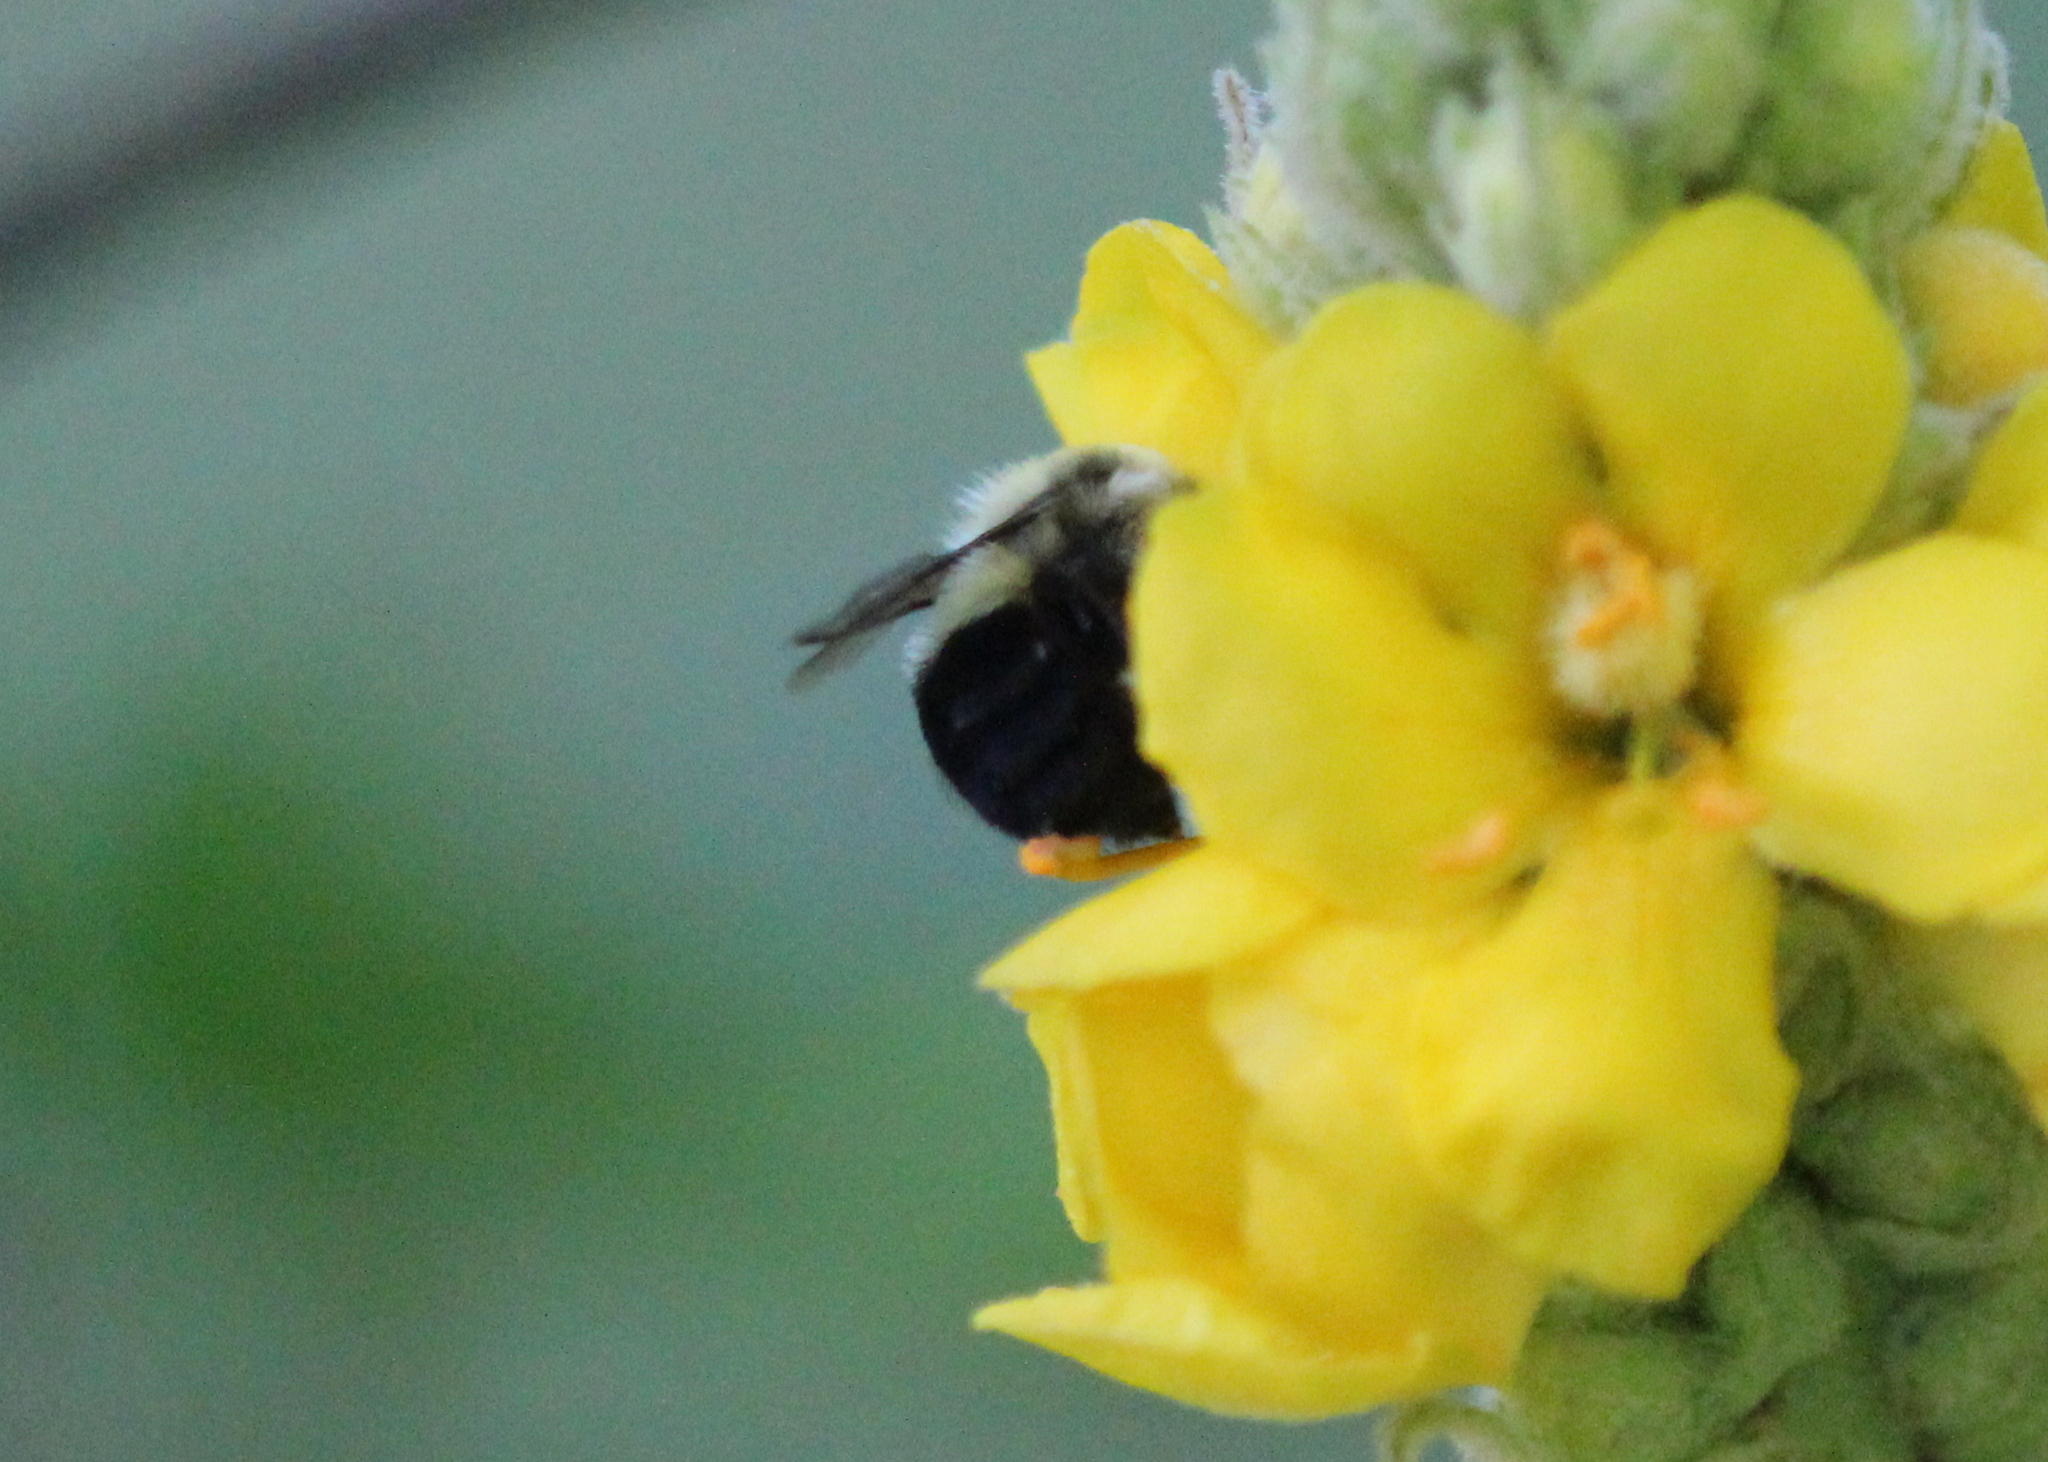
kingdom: Animalia
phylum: Arthropoda
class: Insecta
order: Hymenoptera
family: Apidae
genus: Bombus
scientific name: Bombus impatiens
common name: Common eastern bumble bee
